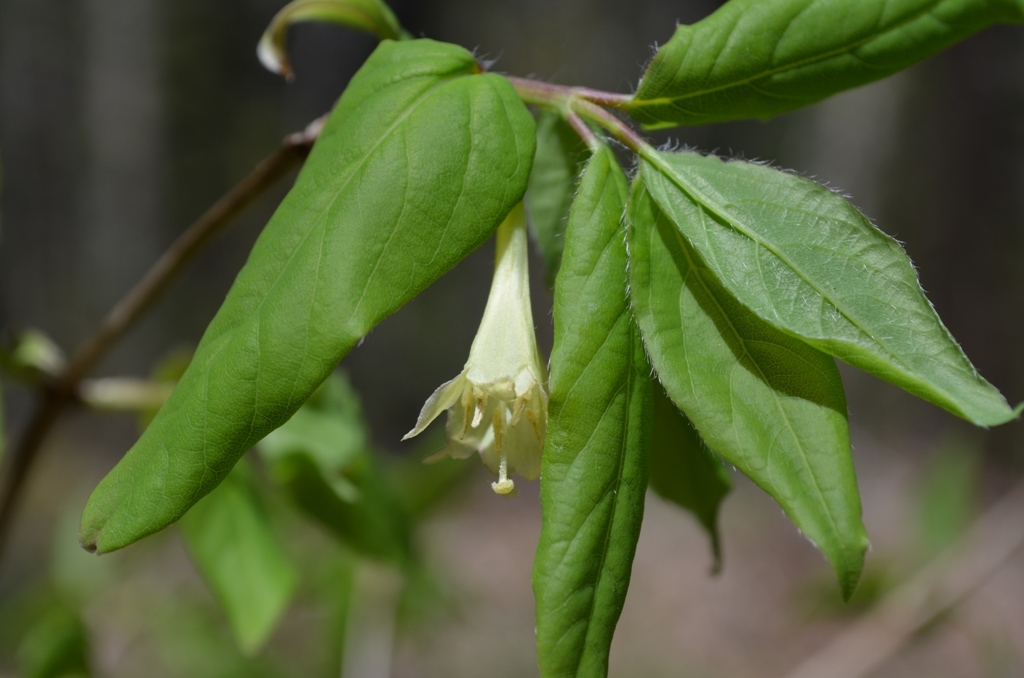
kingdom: Plantae
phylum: Tracheophyta
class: Magnoliopsida
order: Dipsacales
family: Caprifoliaceae
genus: Lonicera
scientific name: Lonicera canadensis
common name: American fly-honeysuckle
